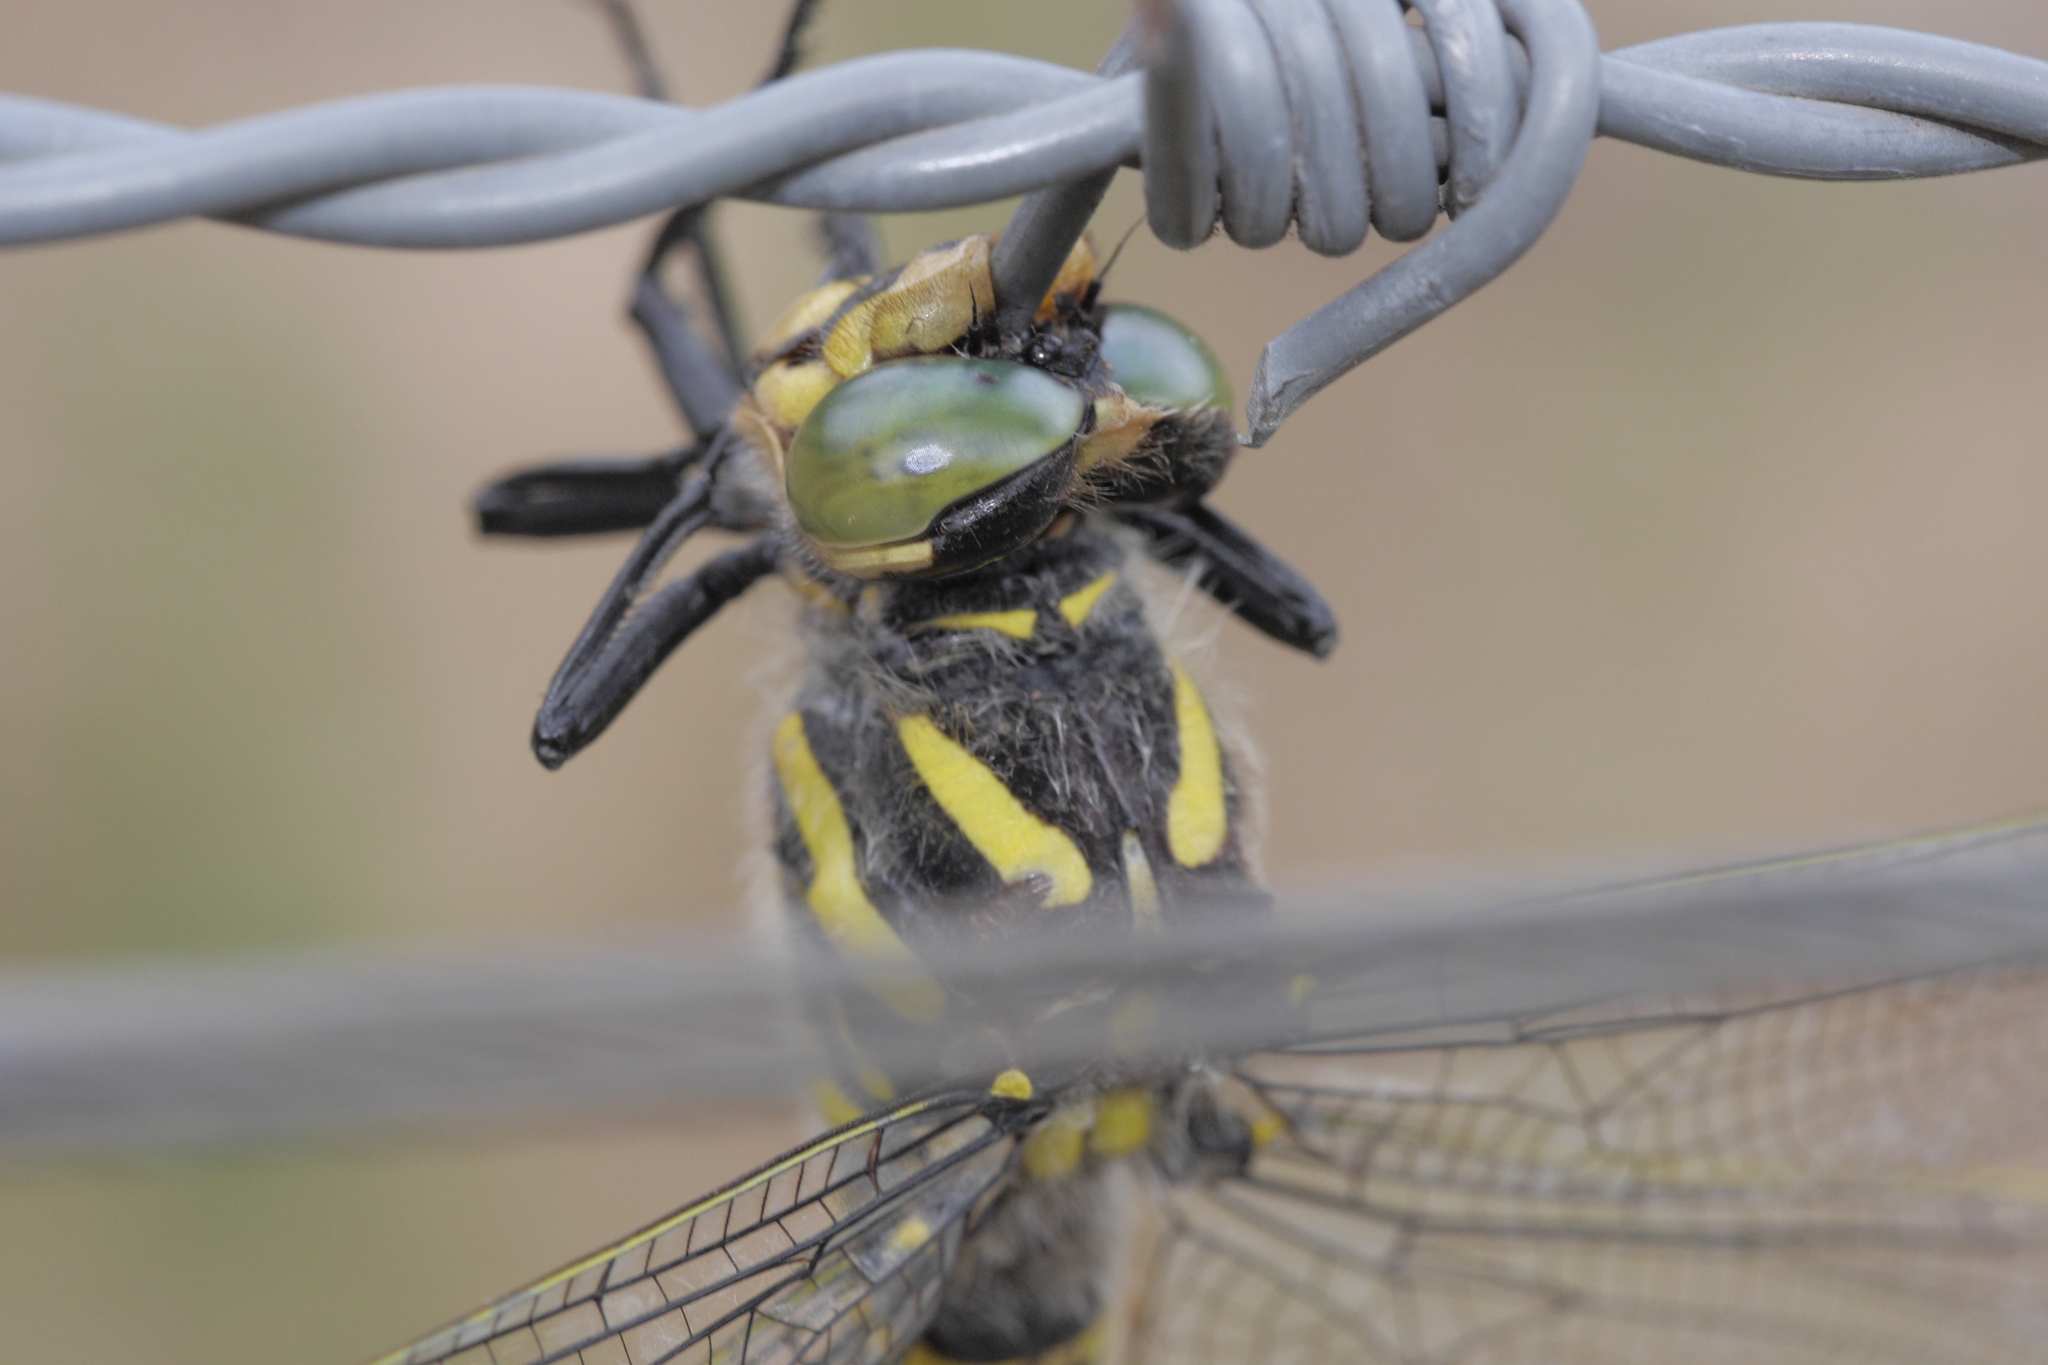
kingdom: Animalia
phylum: Arthropoda
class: Insecta
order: Odonata
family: Cordulegastridae
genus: Cordulegaster
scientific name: Cordulegaster boltonii
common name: Golden-ringed dragonfly
